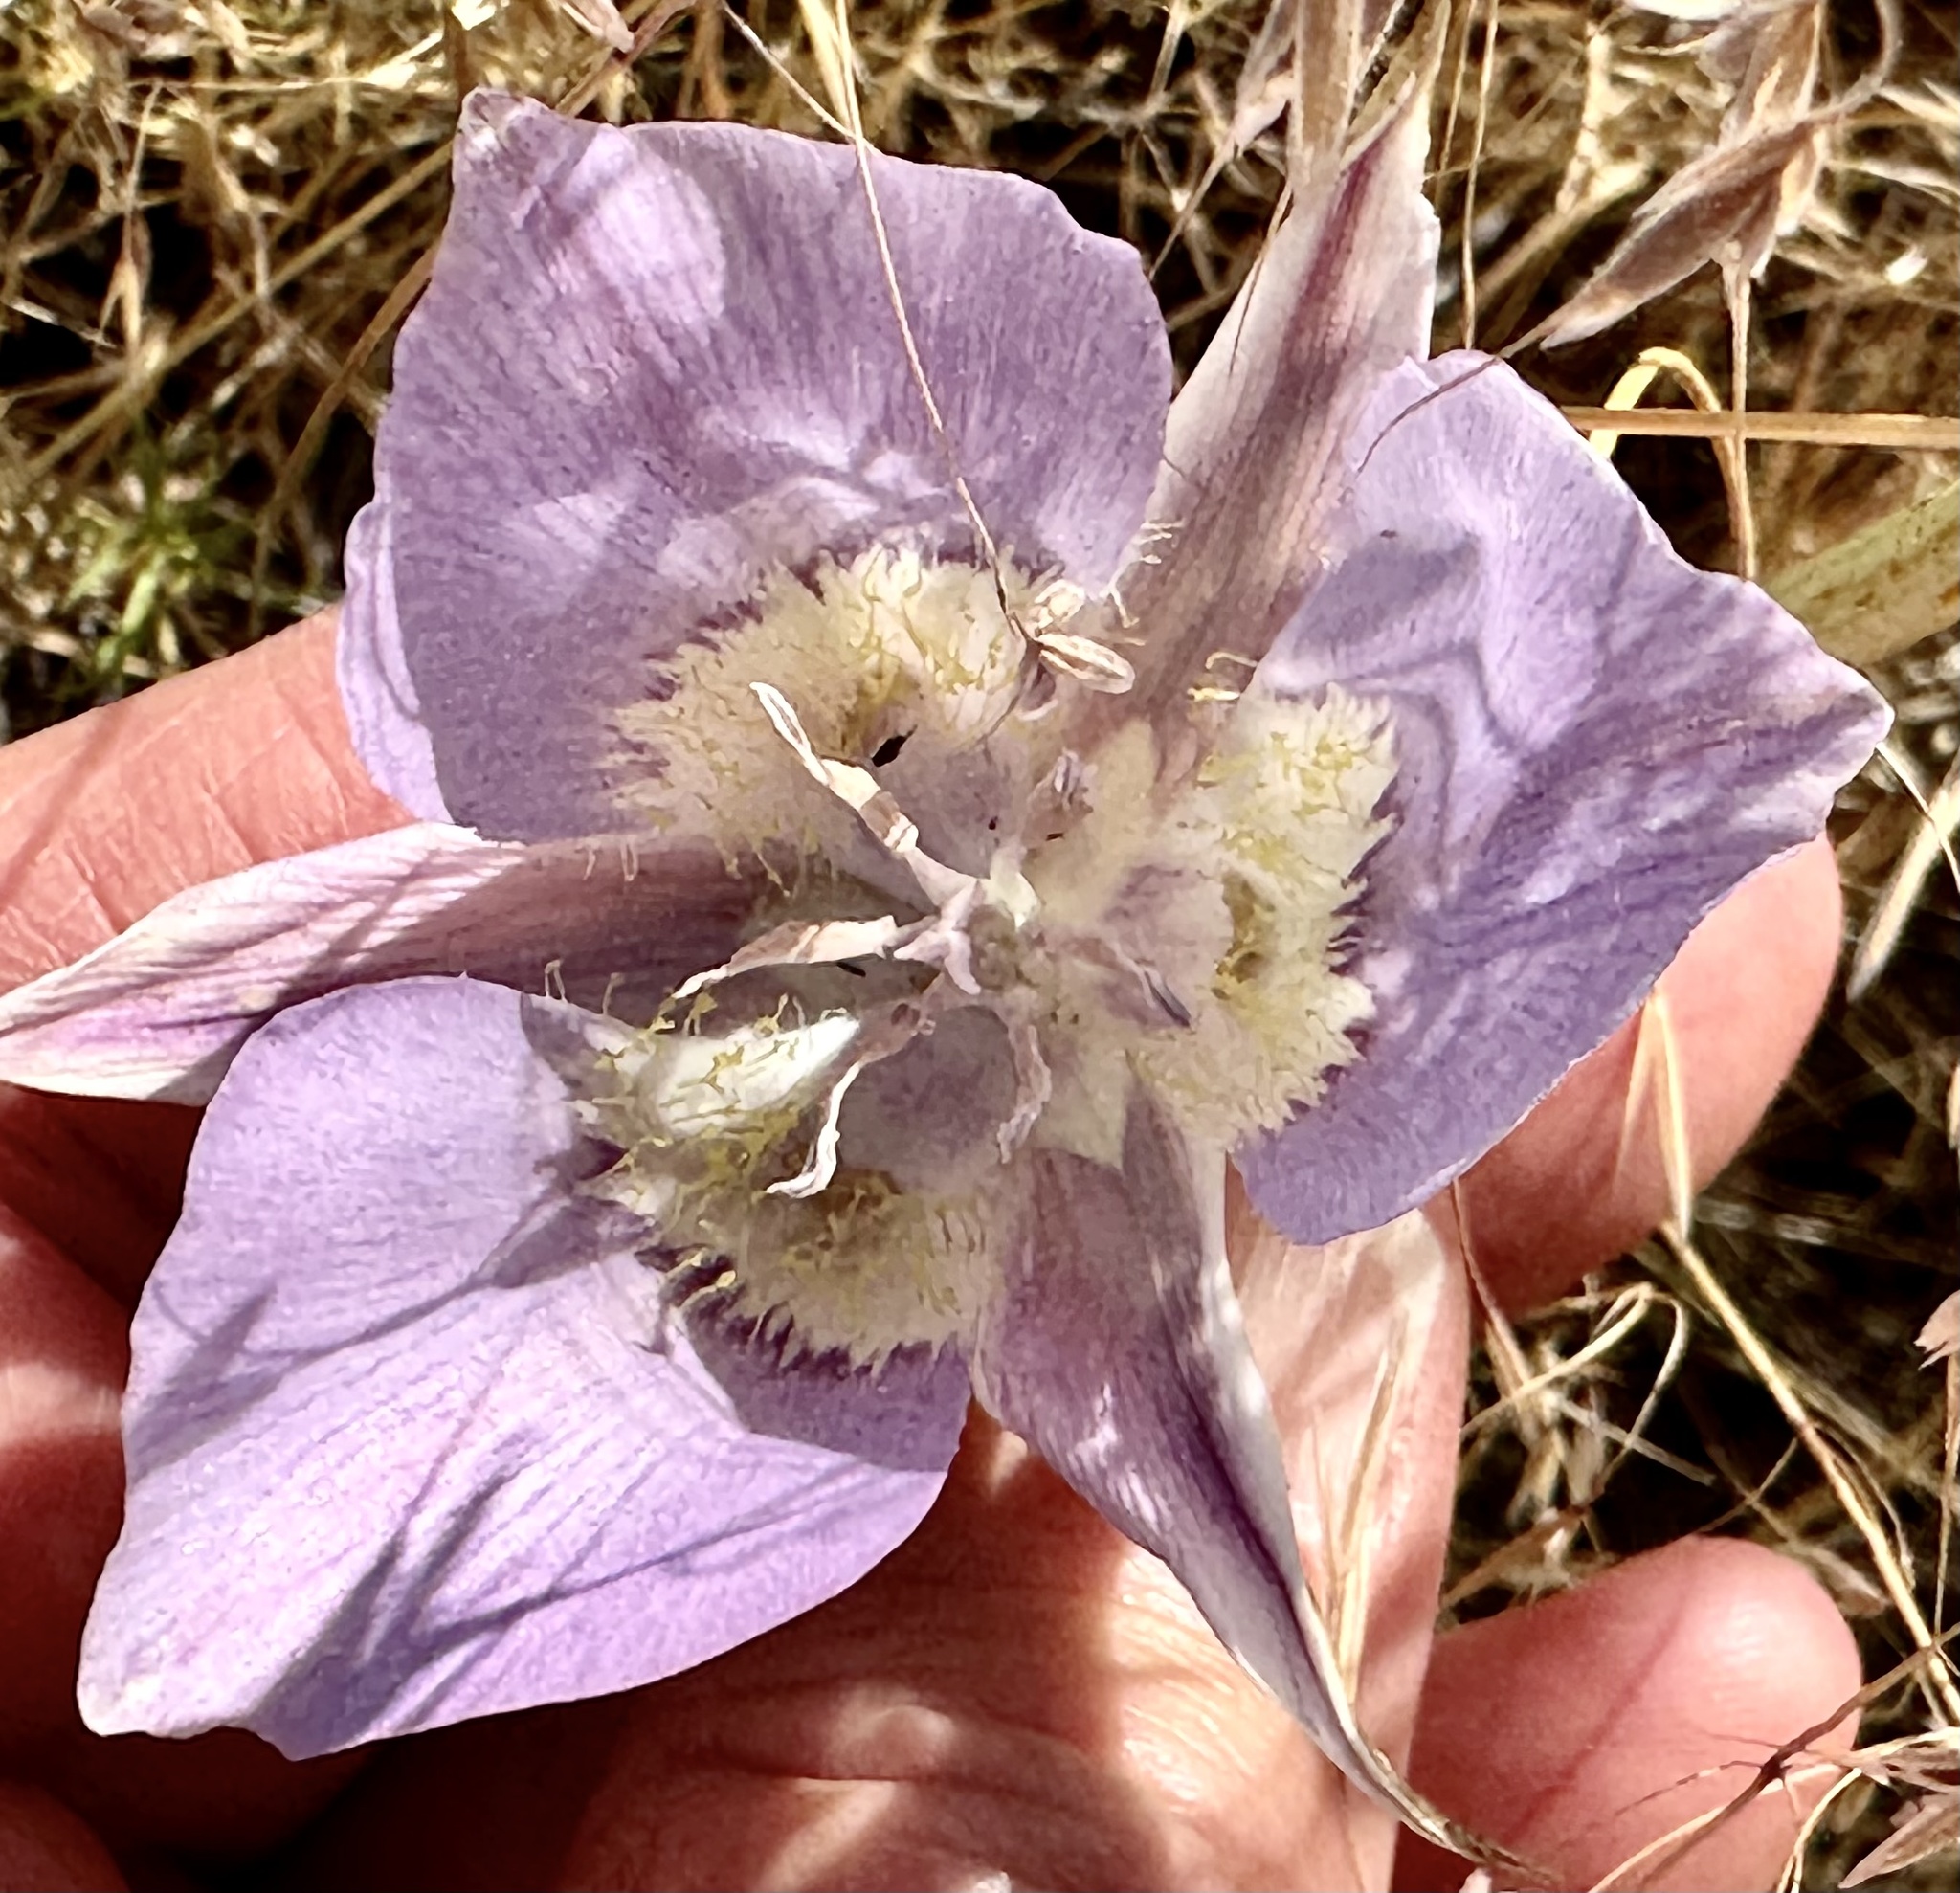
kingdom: Plantae
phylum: Tracheophyta
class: Liliopsida
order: Liliales
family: Liliaceae
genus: Calochortus
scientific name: Calochortus macrocarpus
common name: Green-band mariposa lily
